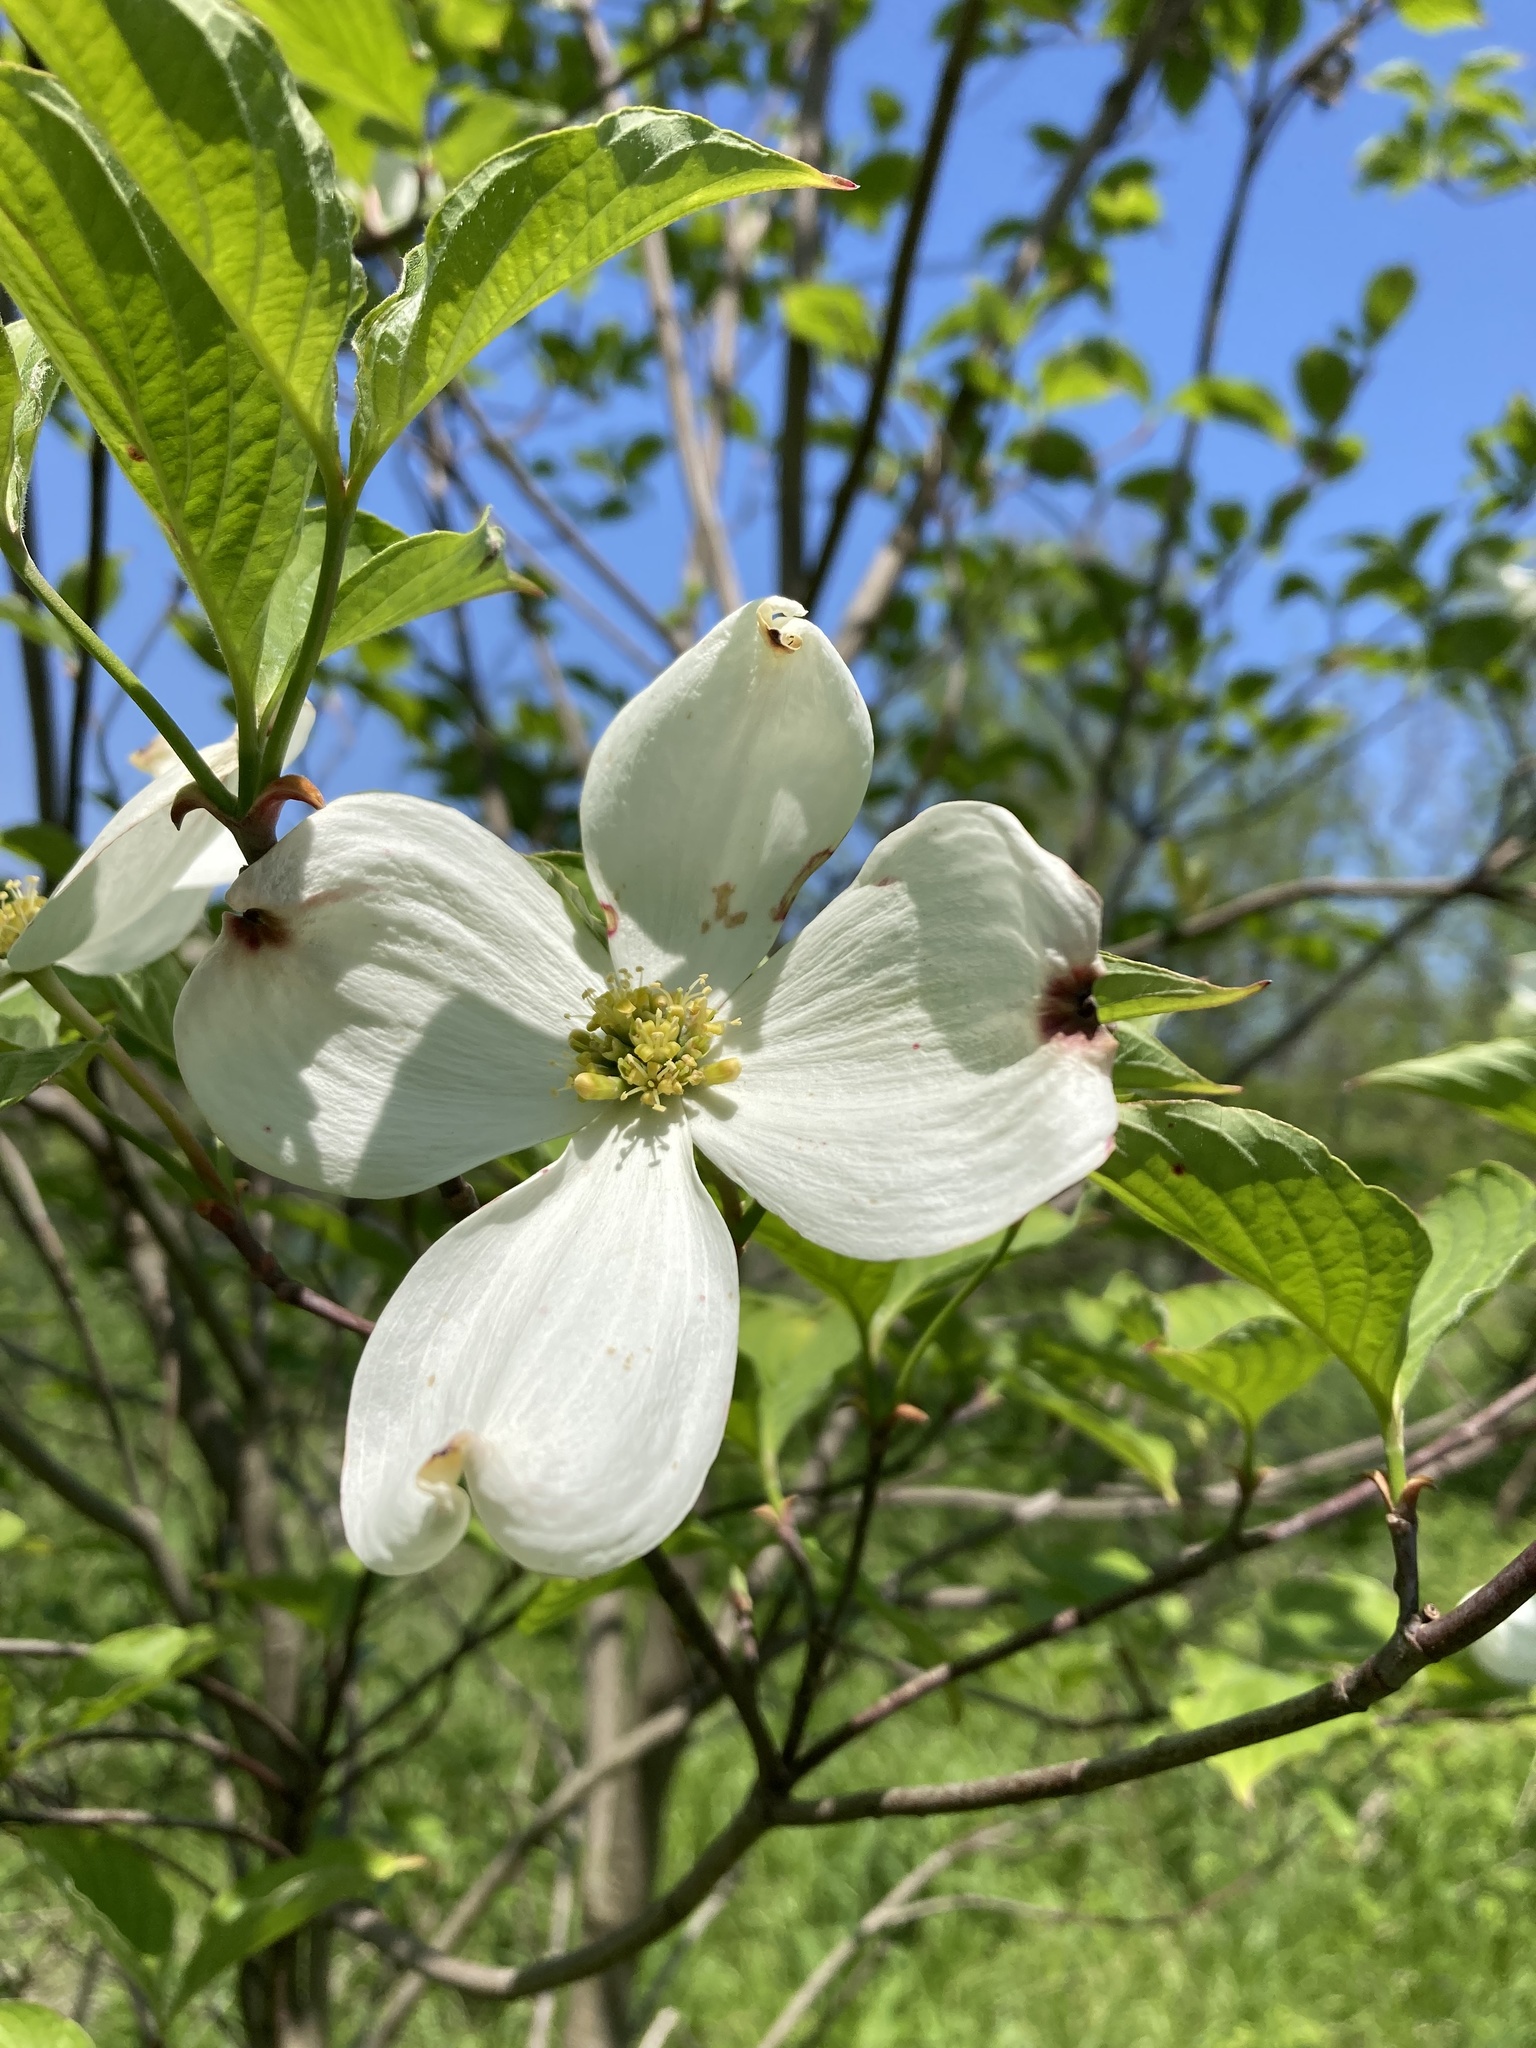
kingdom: Plantae
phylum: Tracheophyta
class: Magnoliopsida
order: Cornales
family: Cornaceae
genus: Cornus
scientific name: Cornus florida
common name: Flowering dogwood
